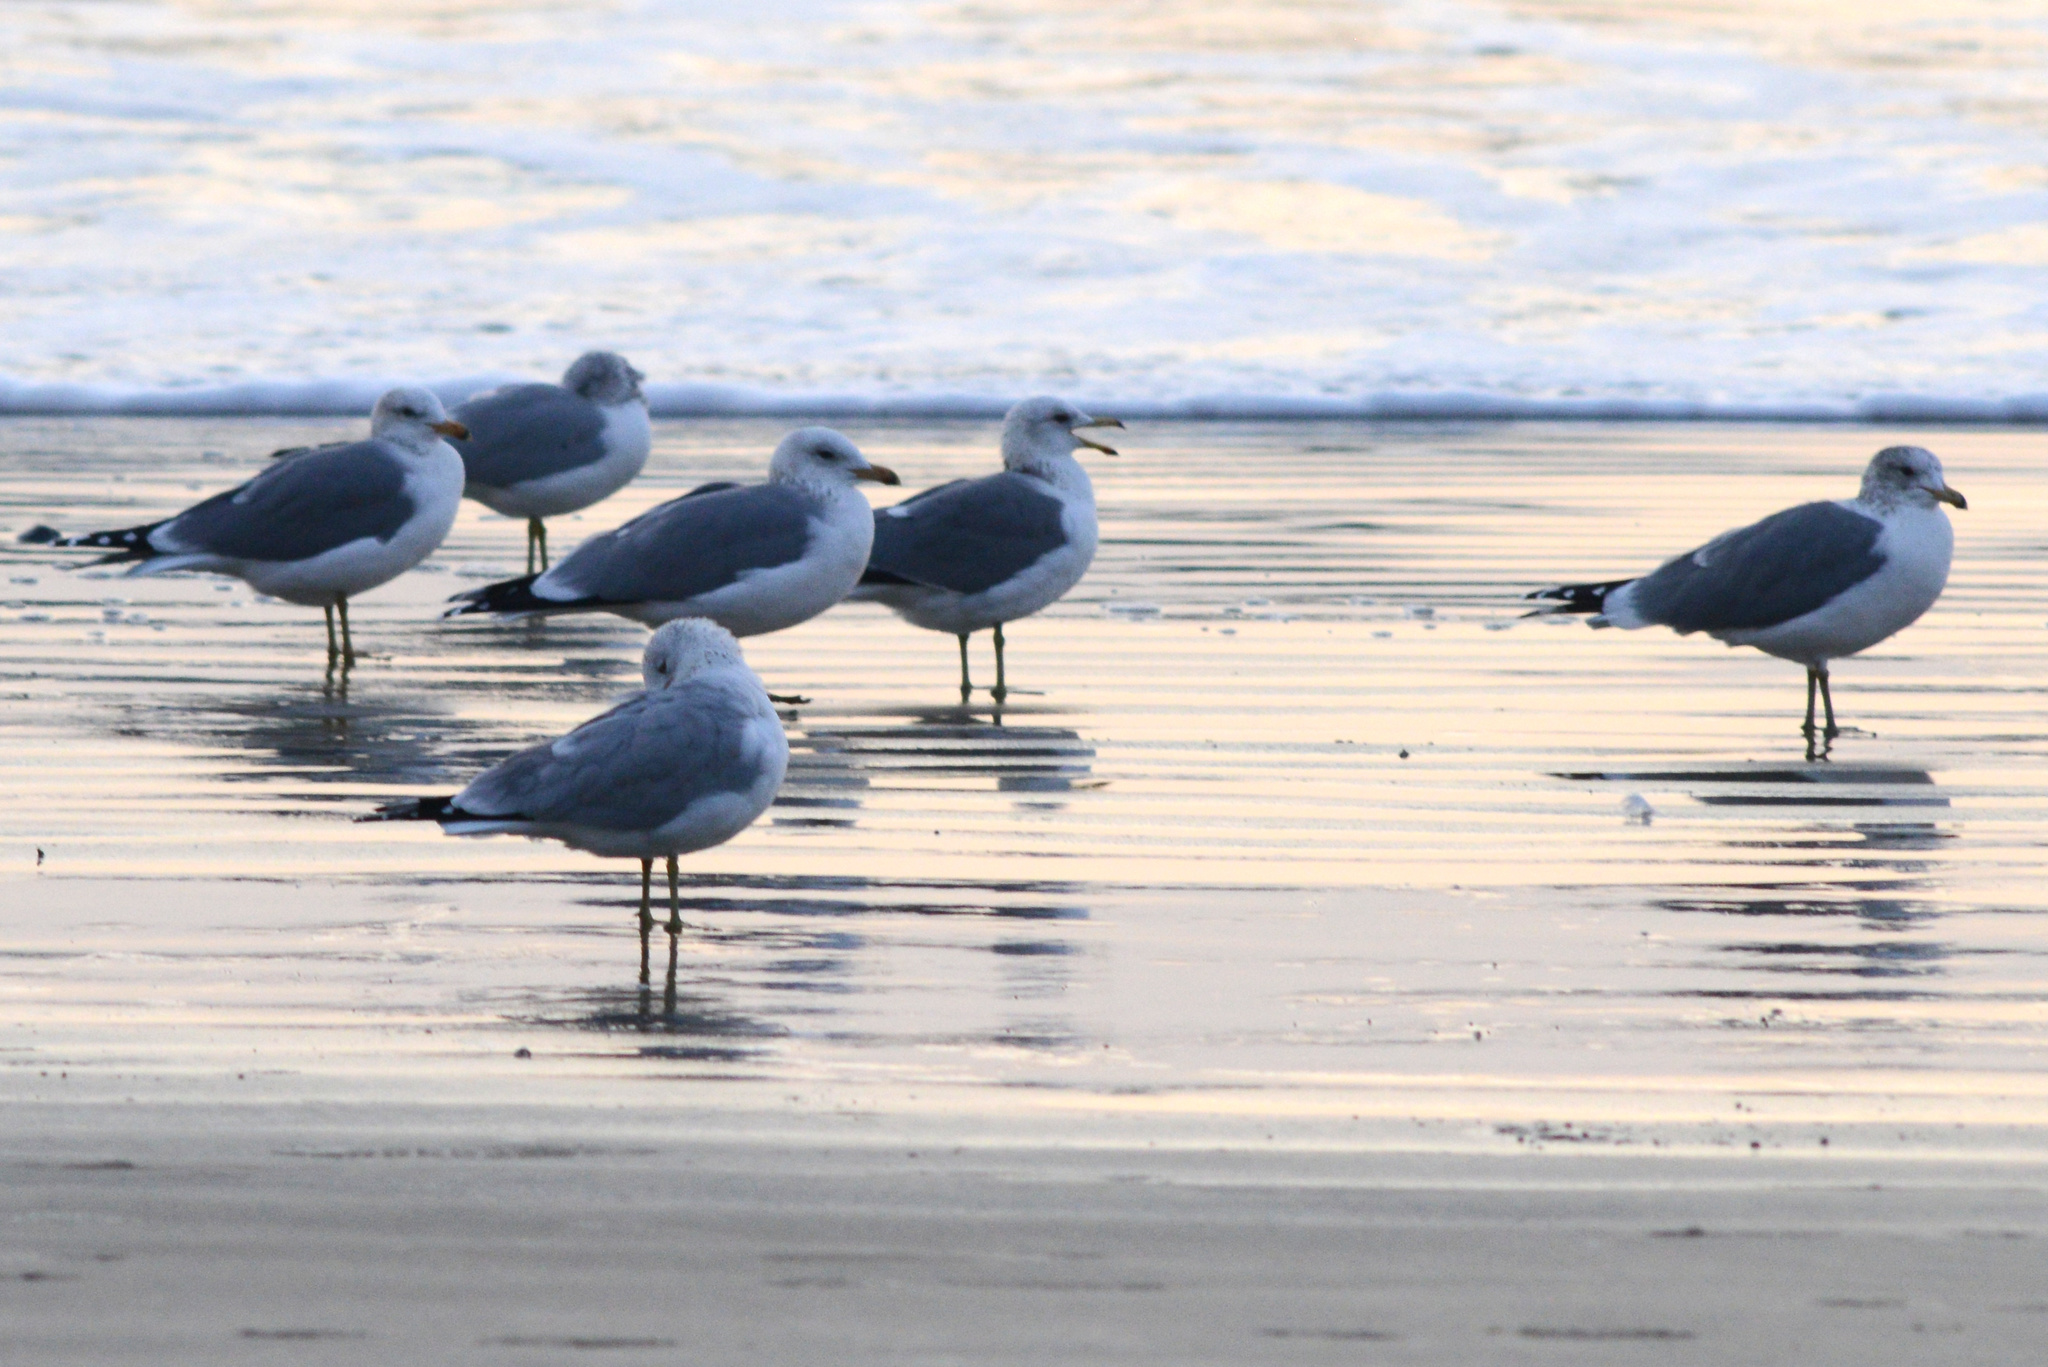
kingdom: Animalia
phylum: Chordata
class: Aves
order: Charadriiformes
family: Laridae
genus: Larus
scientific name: Larus californicus
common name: California gull
